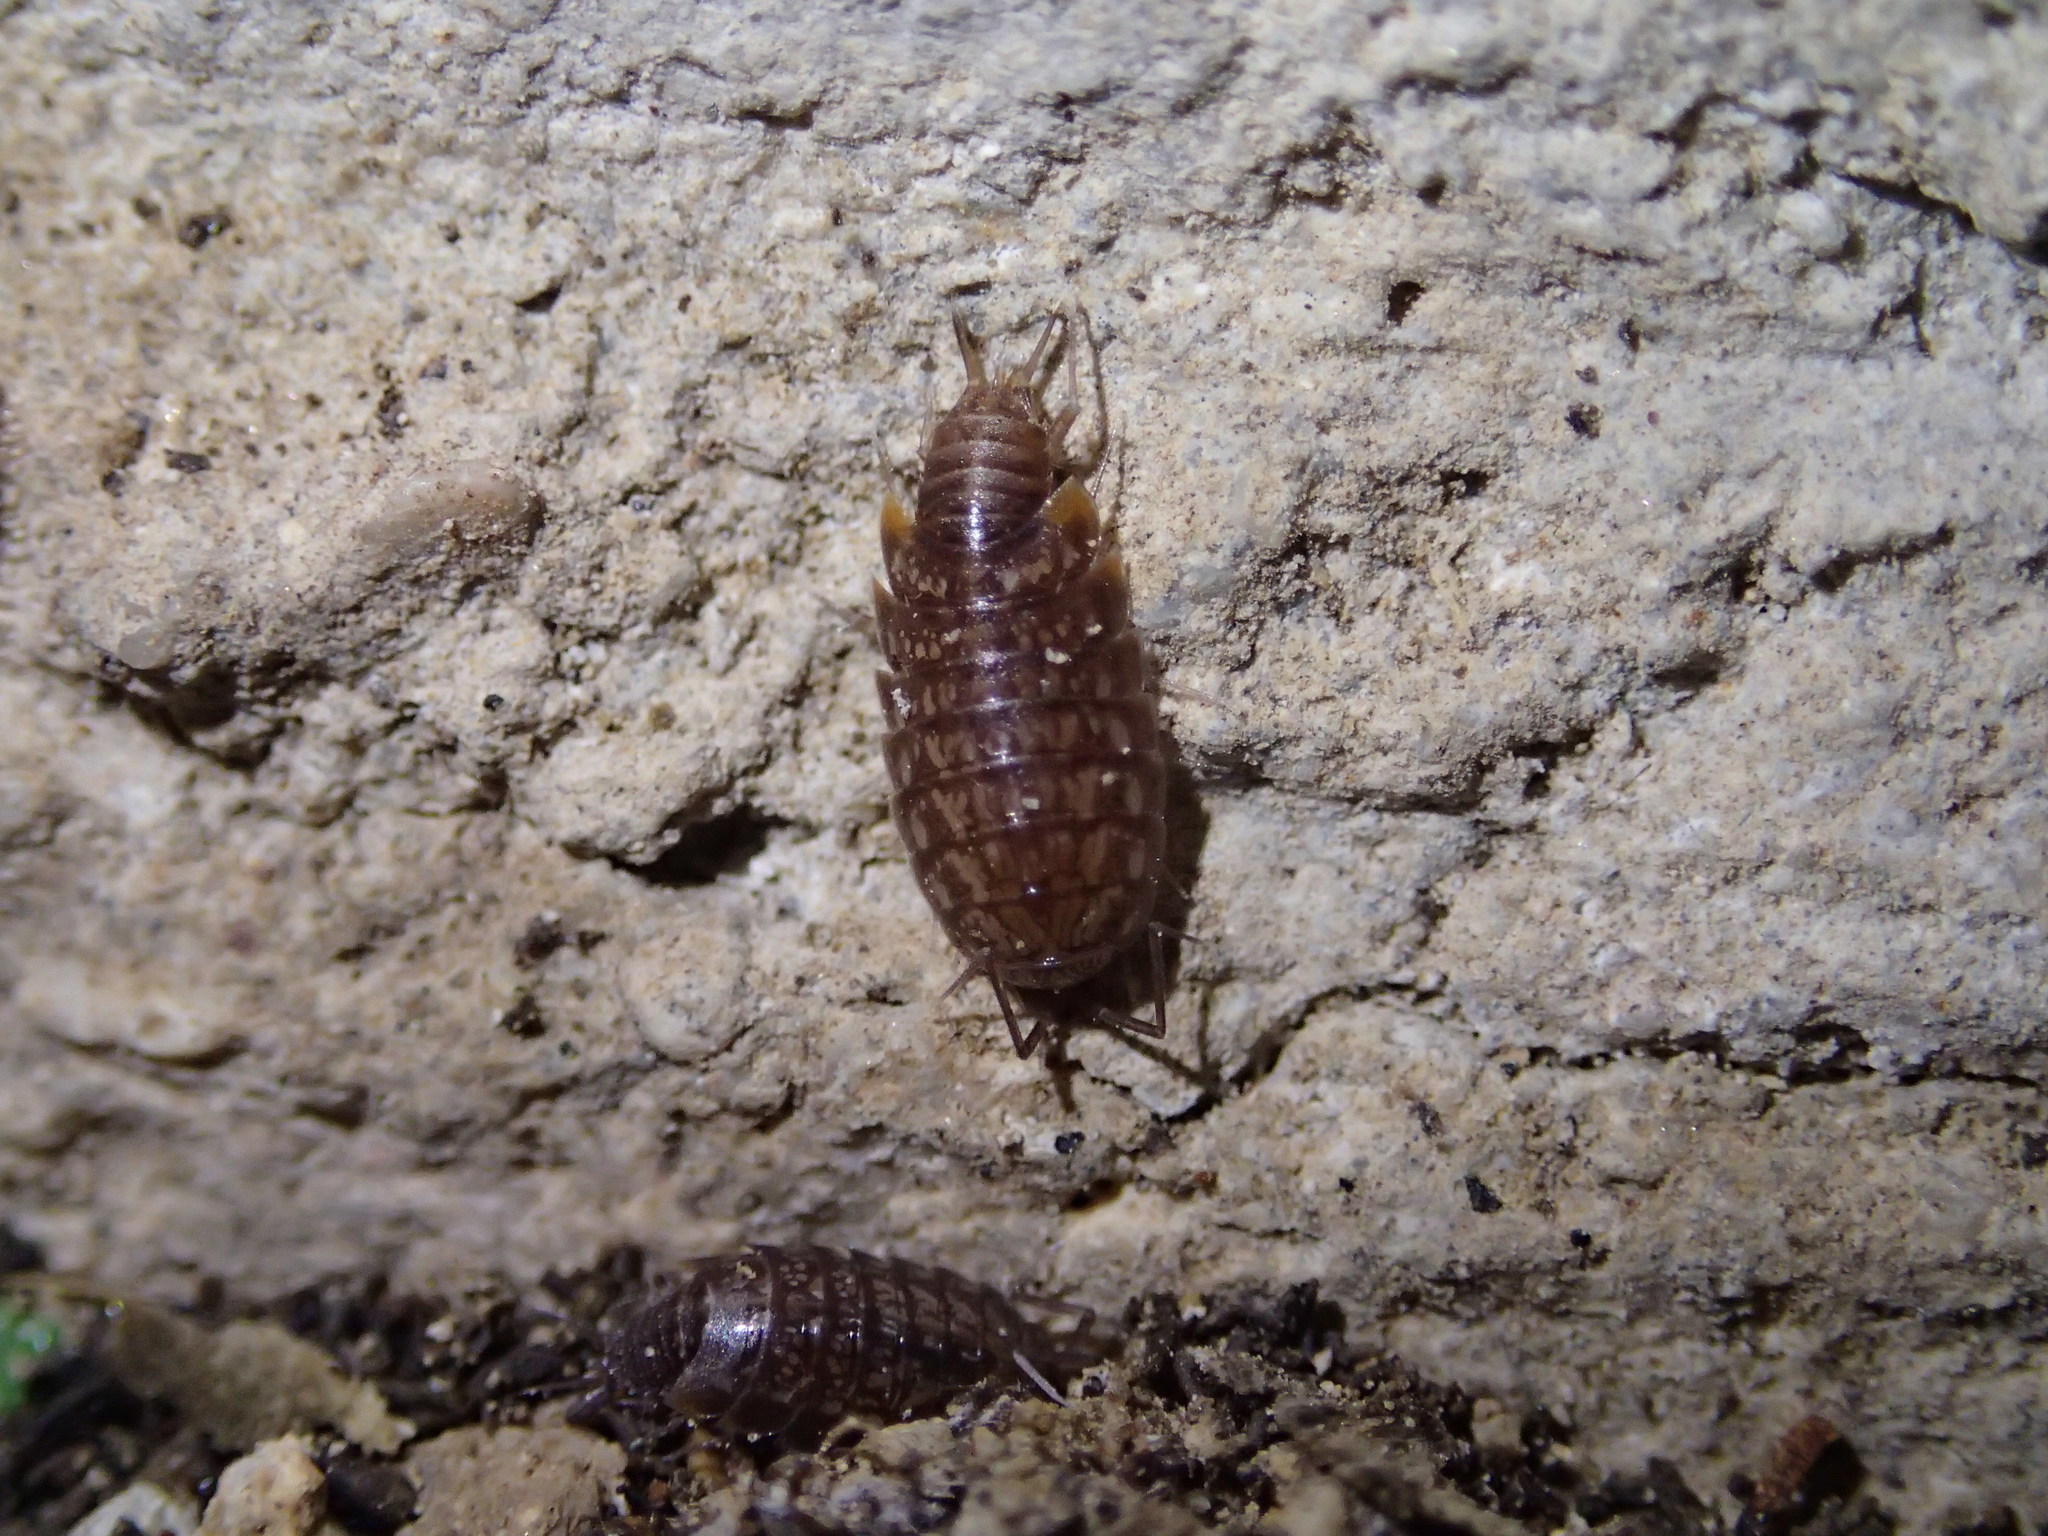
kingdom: Animalia
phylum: Arthropoda
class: Malacostraca
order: Isopoda
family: Philosciidae
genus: Chaetophiloscia
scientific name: Chaetophiloscia cellaria
